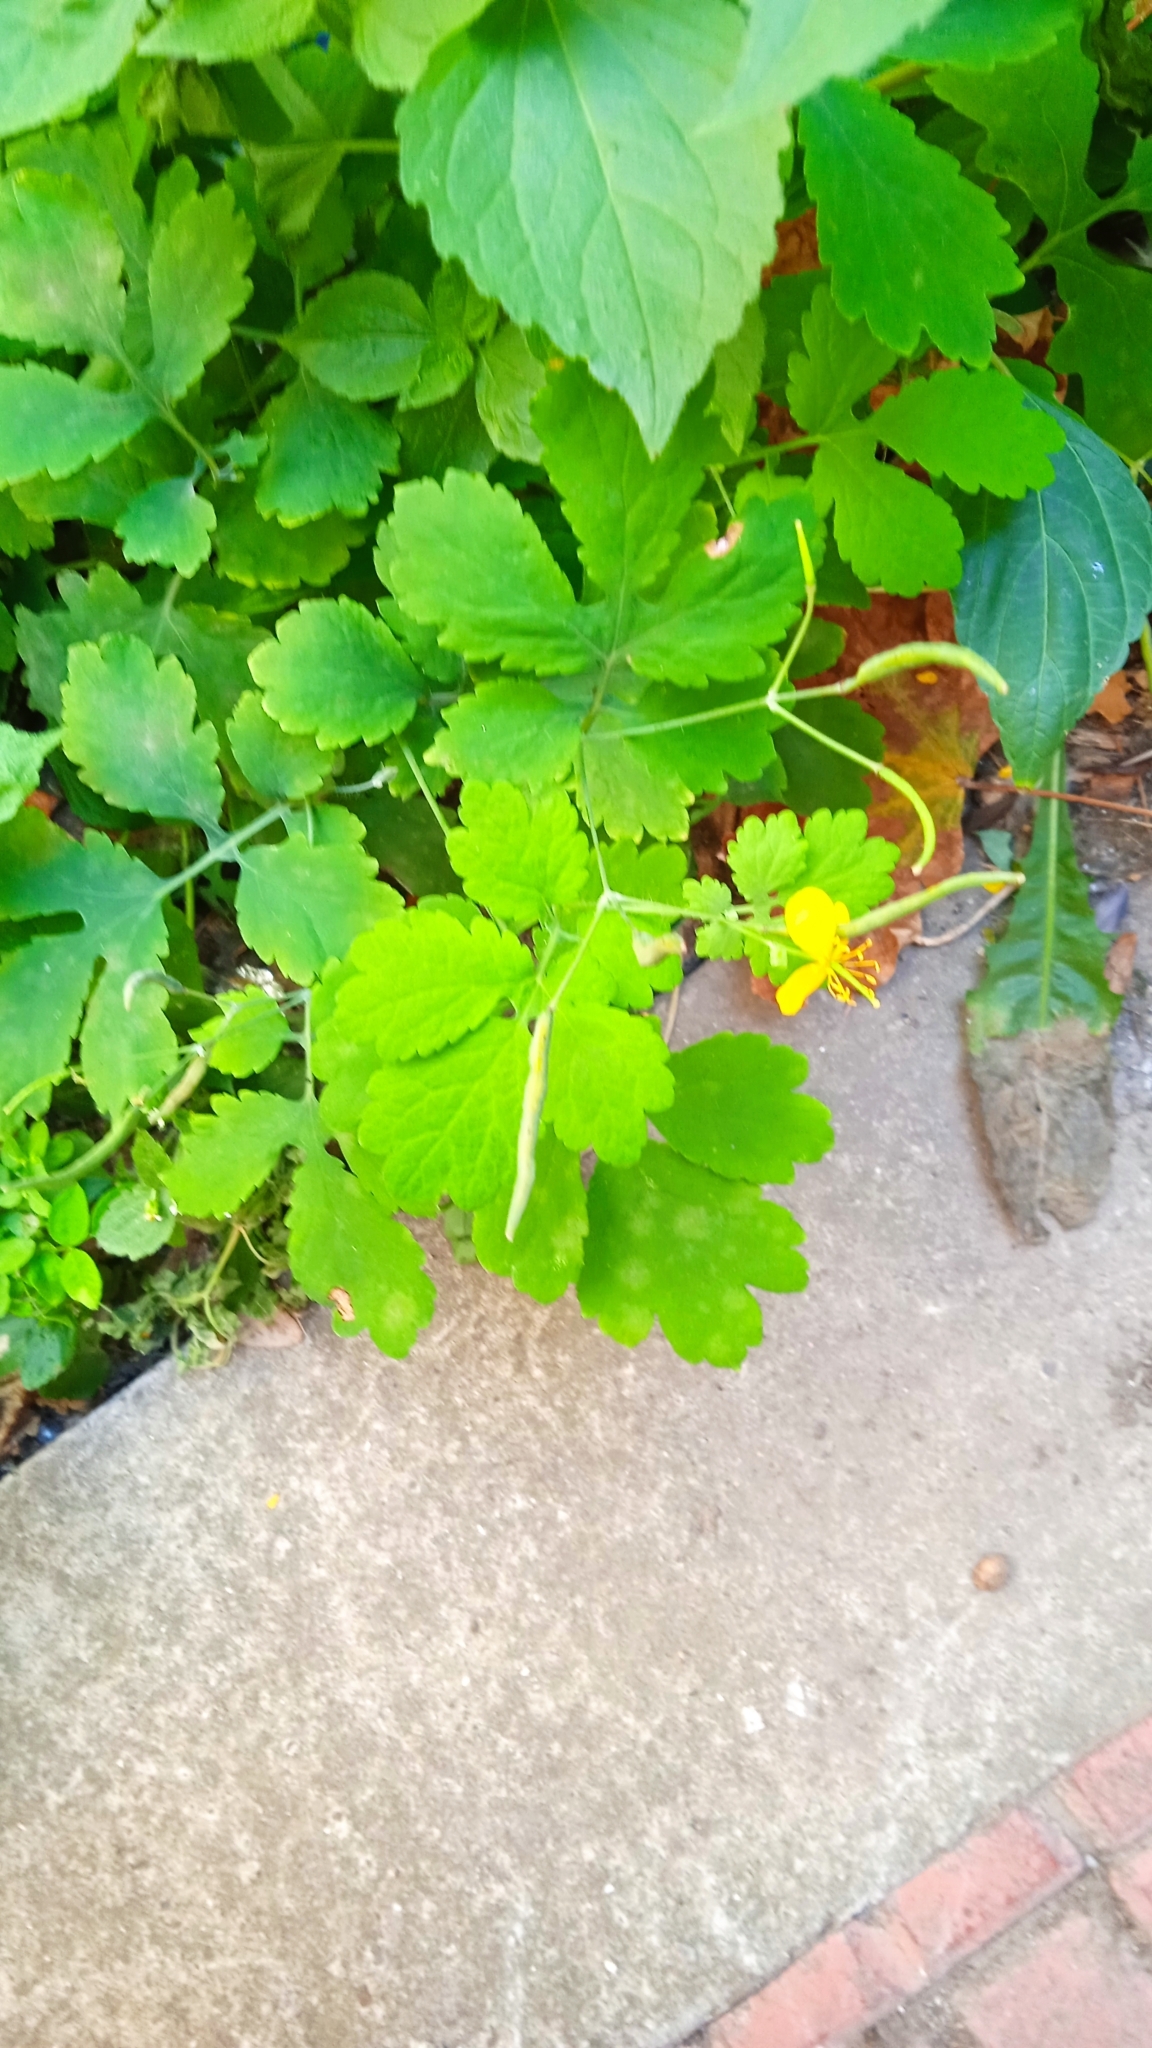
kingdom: Plantae
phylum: Tracheophyta
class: Magnoliopsida
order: Ranunculales
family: Papaveraceae
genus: Chelidonium
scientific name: Chelidonium majus
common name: Greater celandine
